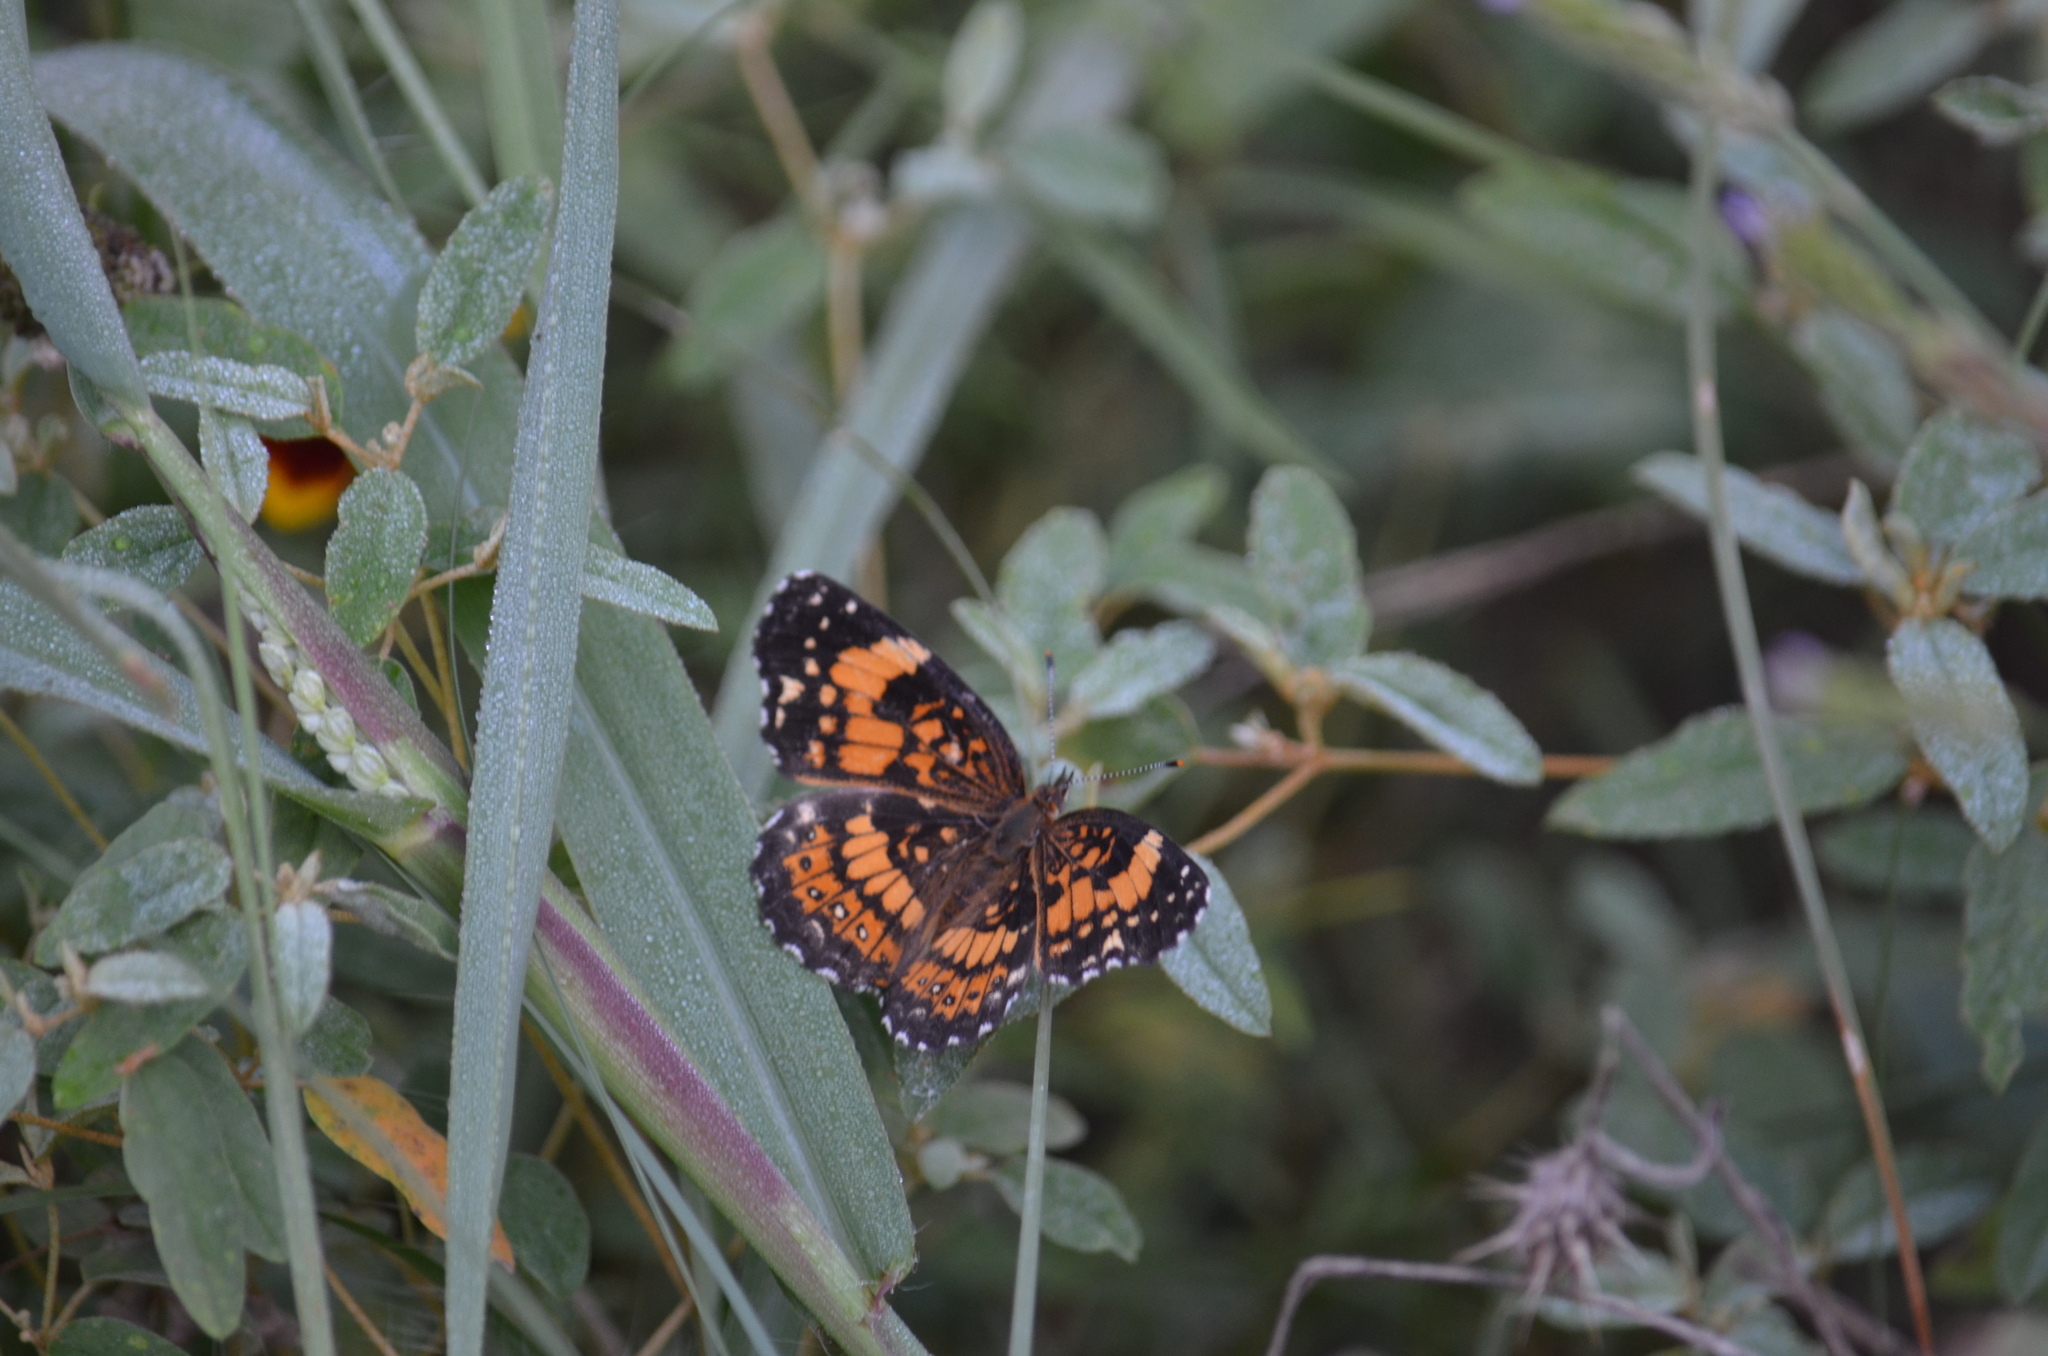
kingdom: Animalia
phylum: Arthropoda
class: Insecta
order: Lepidoptera
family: Nymphalidae
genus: Chlosyne
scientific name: Chlosyne nycteis
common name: Silvery checkerspot
